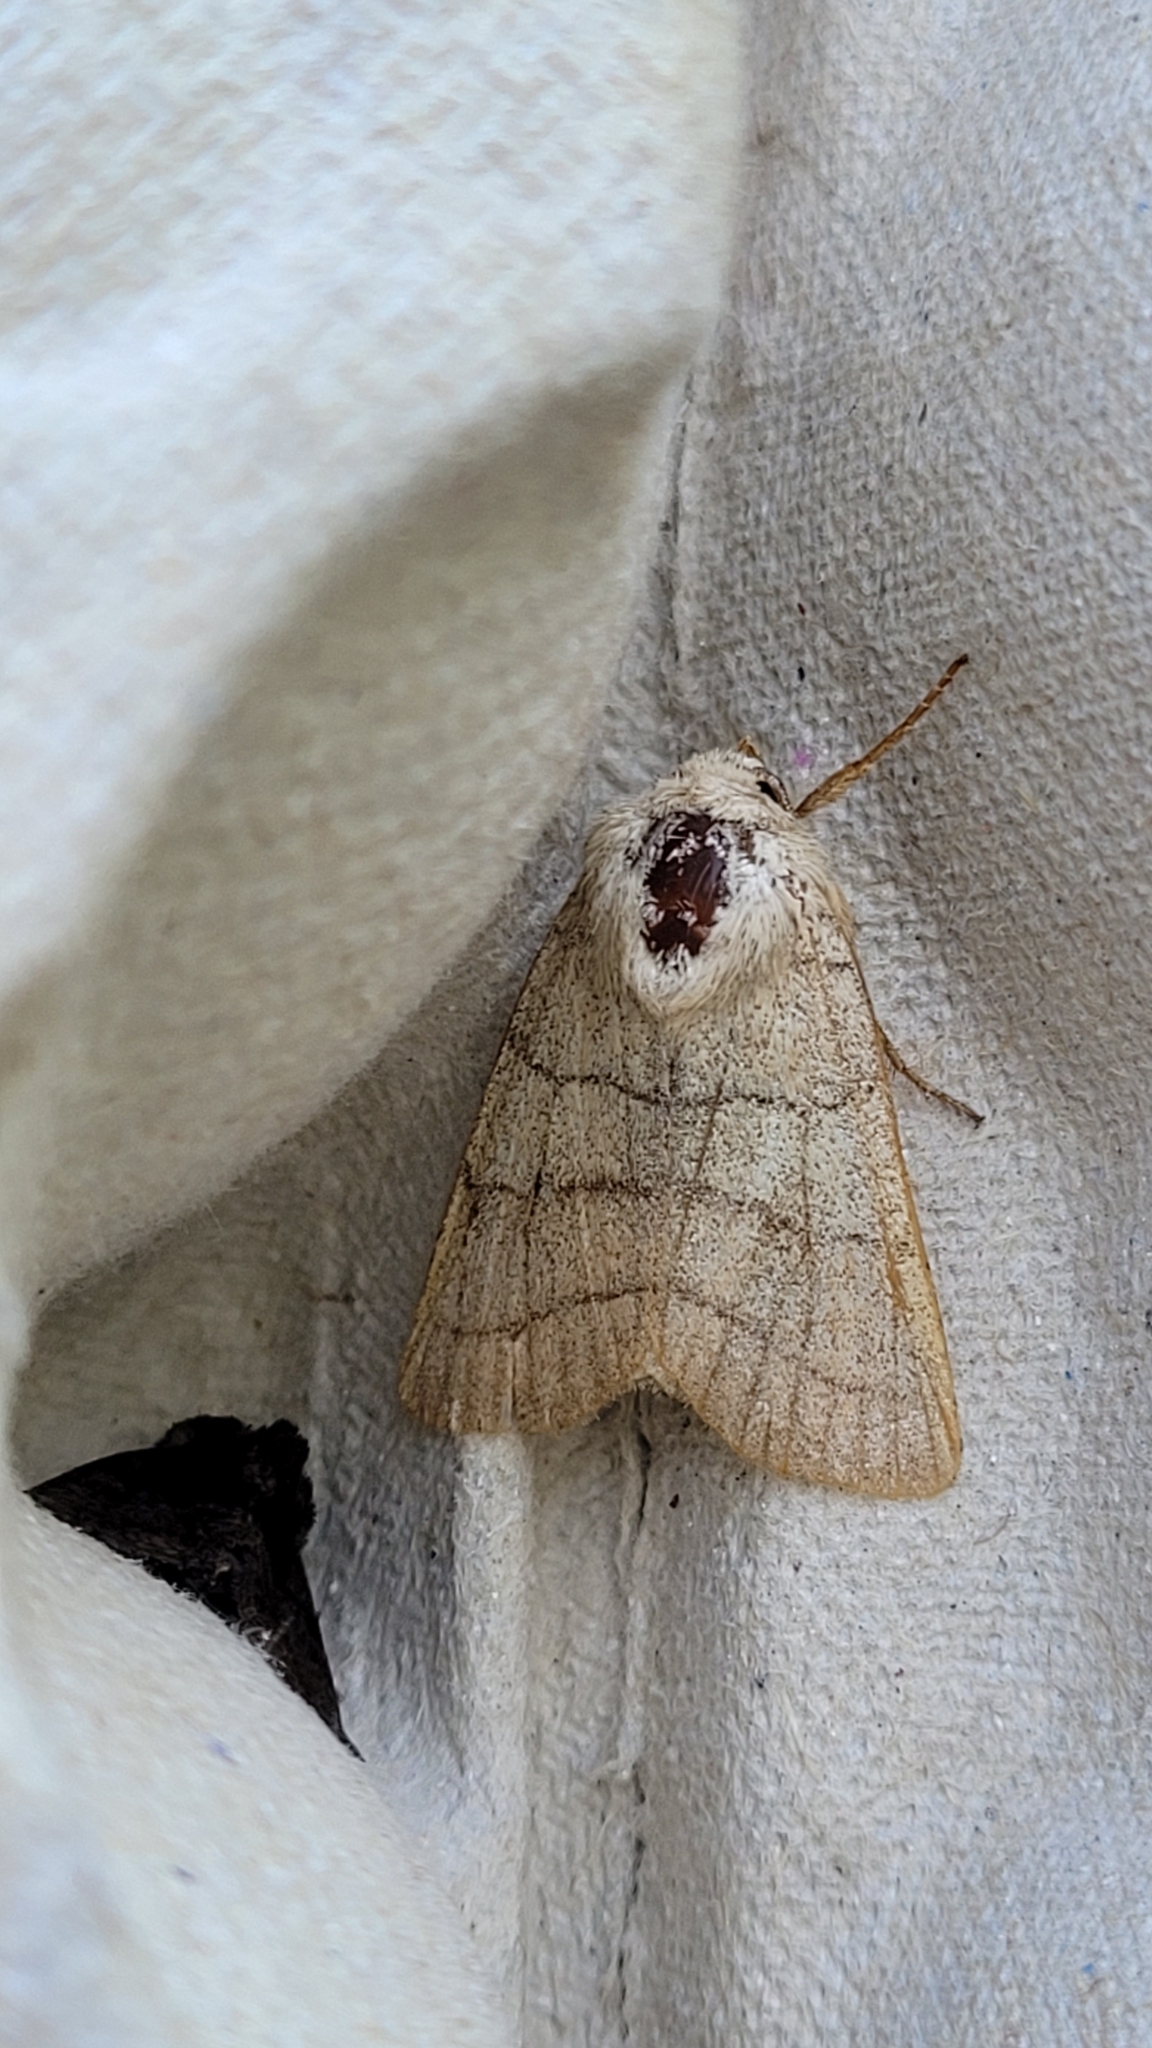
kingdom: Animalia
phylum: Arthropoda
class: Insecta
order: Lepidoptera
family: Noctuidae
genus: Charanyca
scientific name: Charanyca trigrammica
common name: Treble lines
